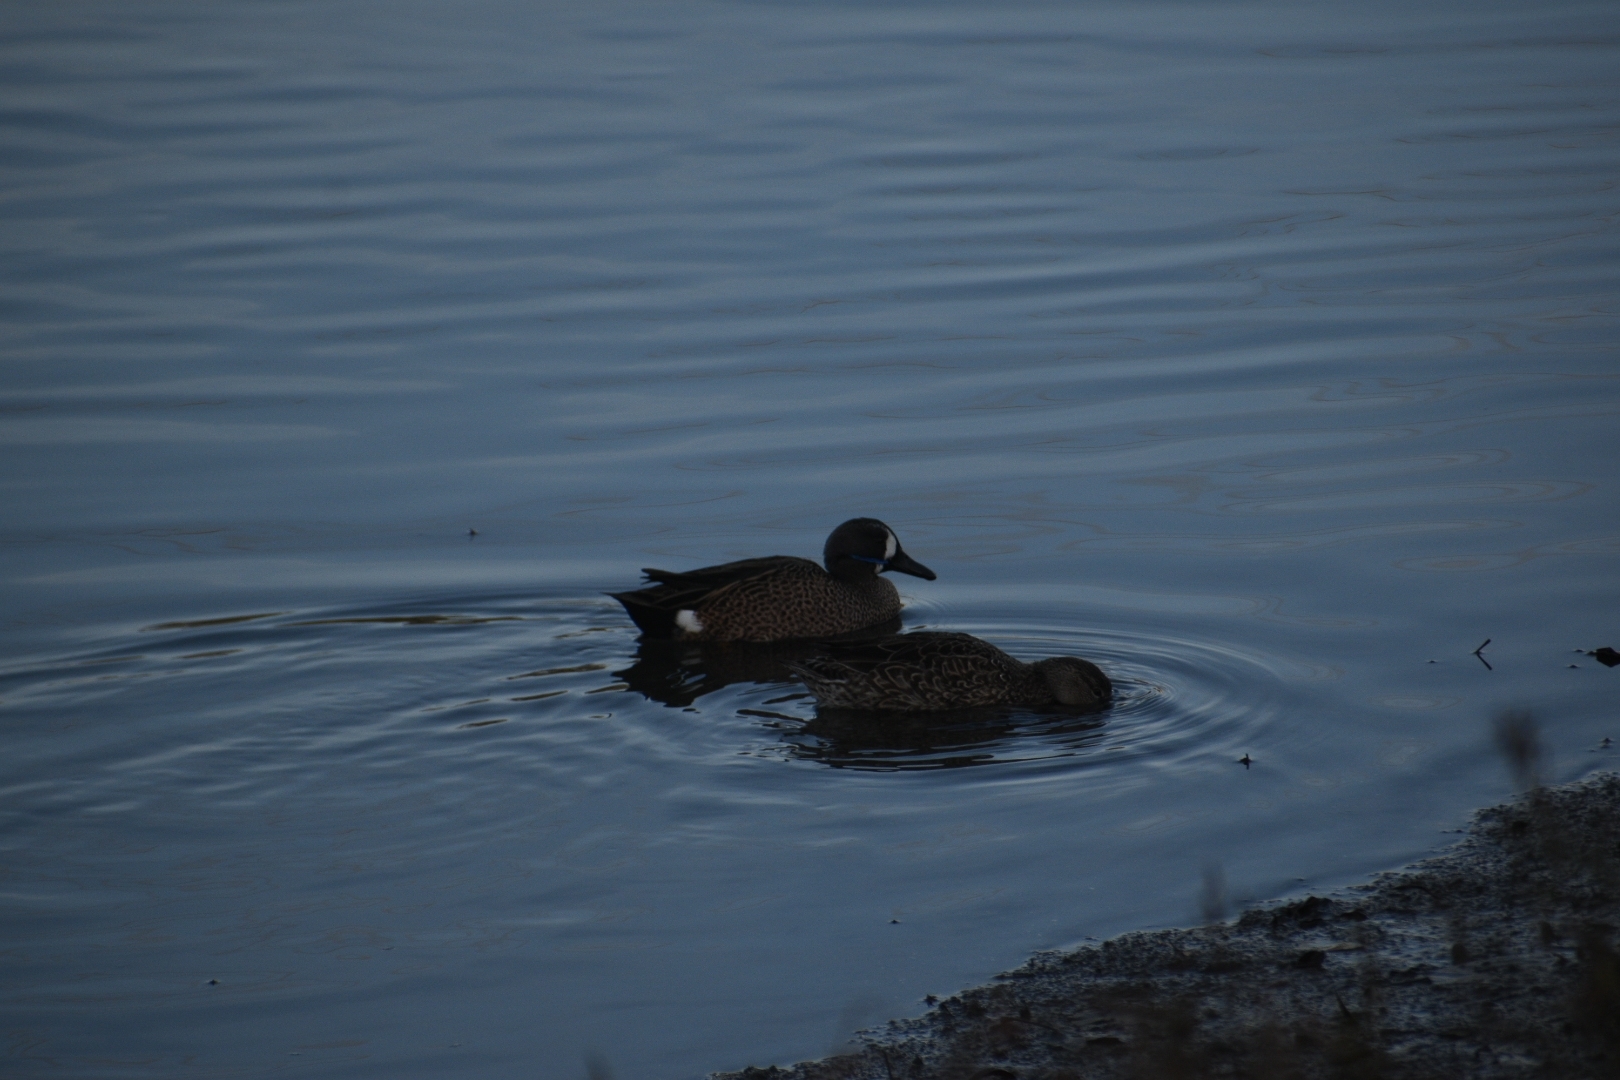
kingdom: Animalia
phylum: Chordata
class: Aves
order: Anseriformes
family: Anatidae
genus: Spatula
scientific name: Spatula discors
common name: Blue-winged teal
